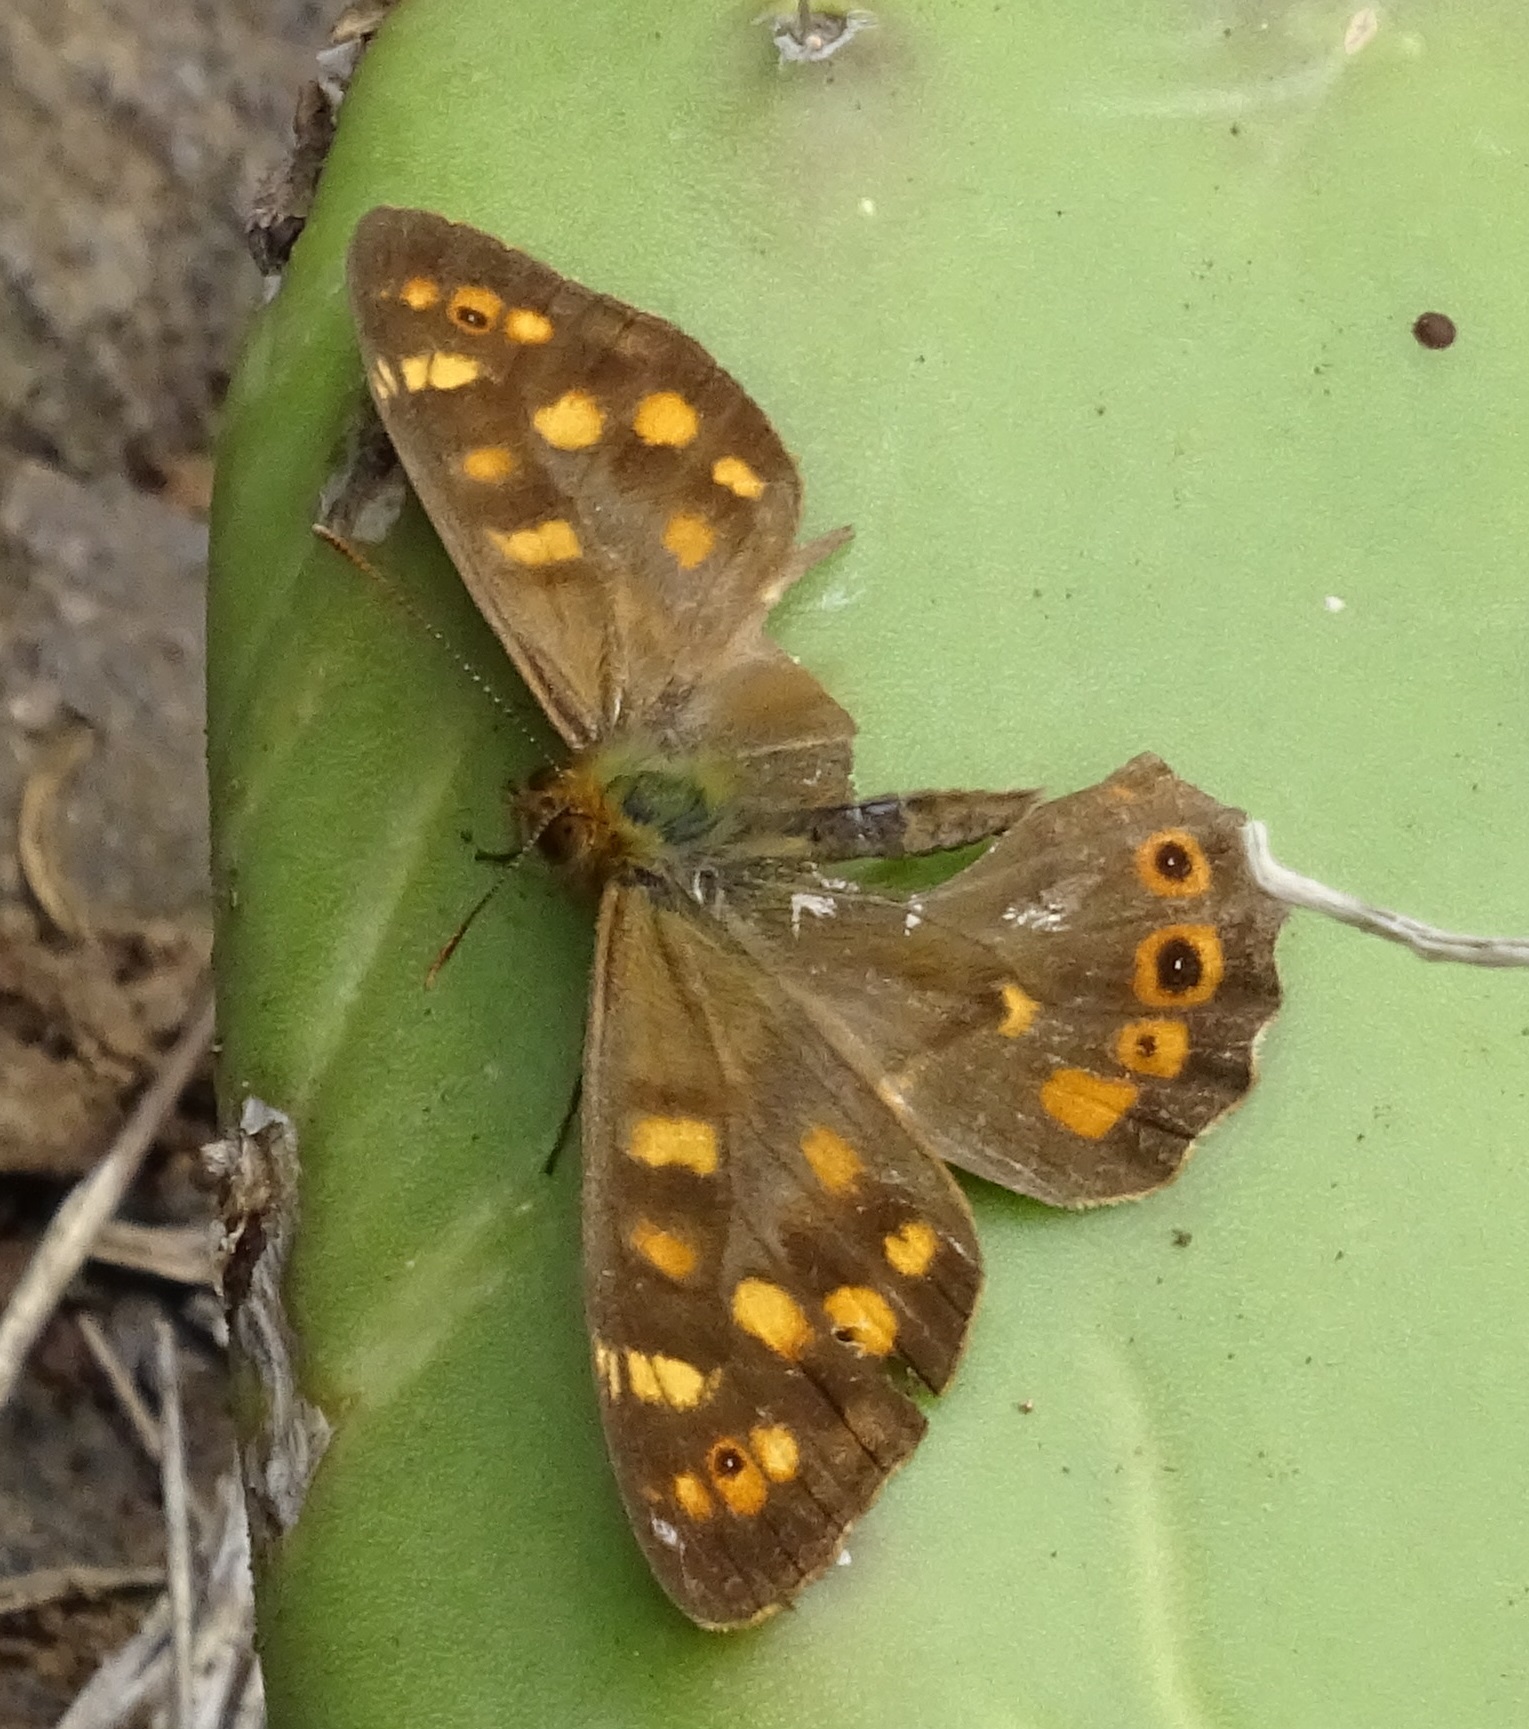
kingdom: Animalia
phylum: Arthropoda
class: Insecta
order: Lepidoptera
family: Nymphalidae
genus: Pararge
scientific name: Pararge aegeria
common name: Speckled wood
